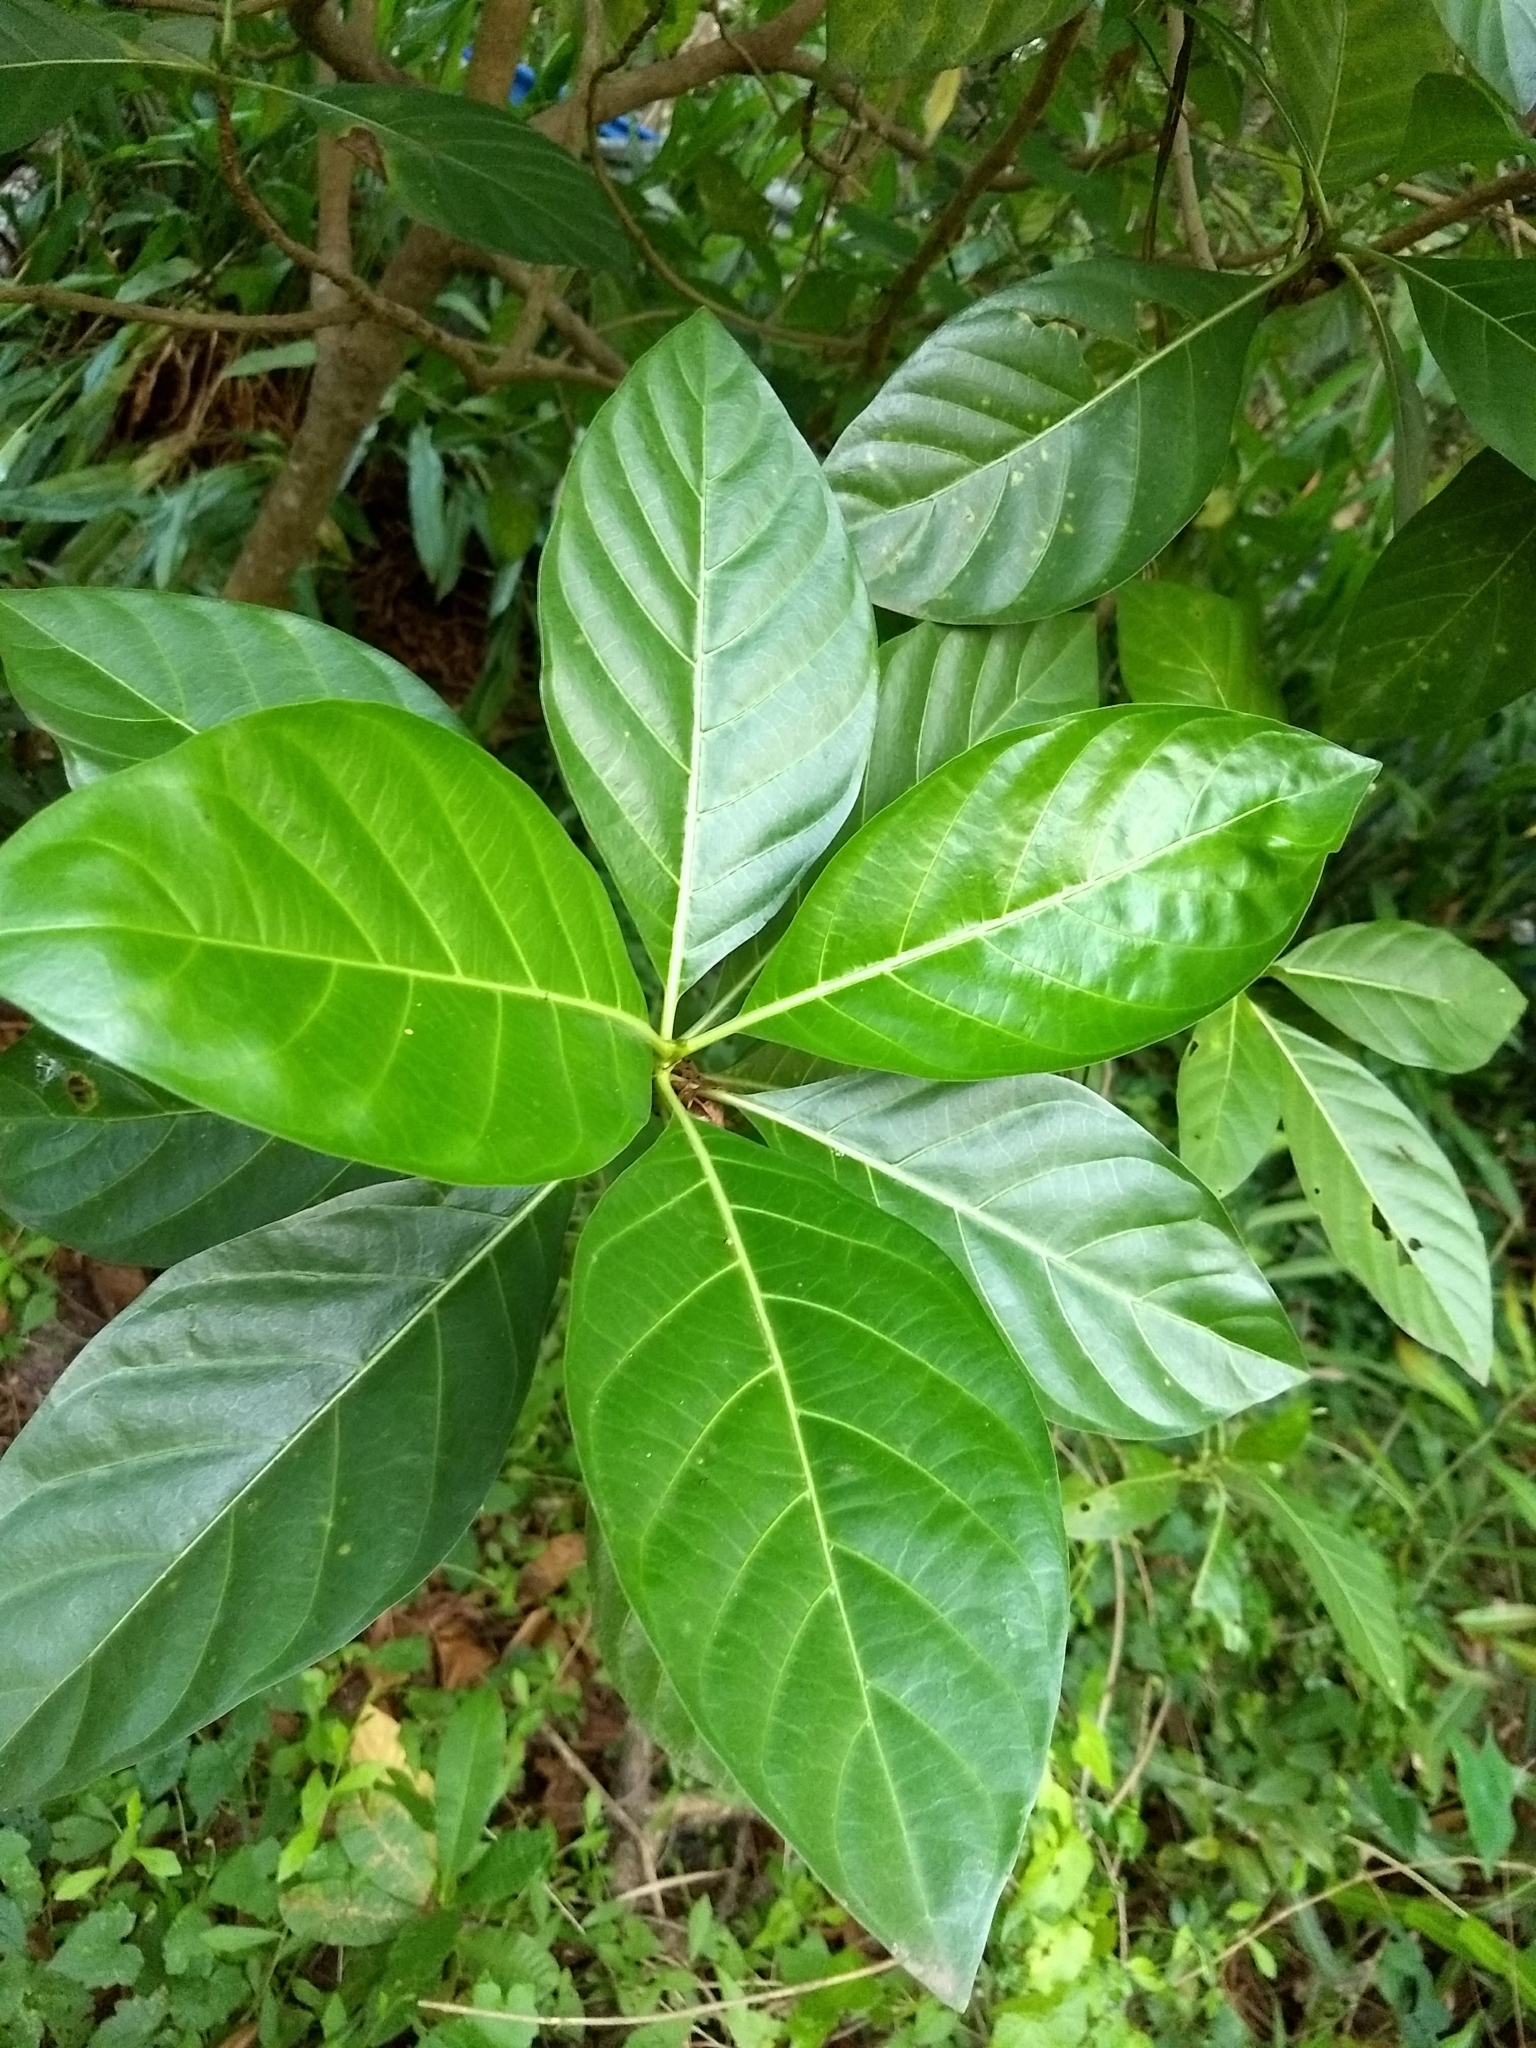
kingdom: Plantae
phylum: Tracheophyta
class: Magnoliopsida
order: Gentianales
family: Rubiaceae
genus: Morinda
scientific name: Morinda citrifolia
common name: Indian-mulberry
